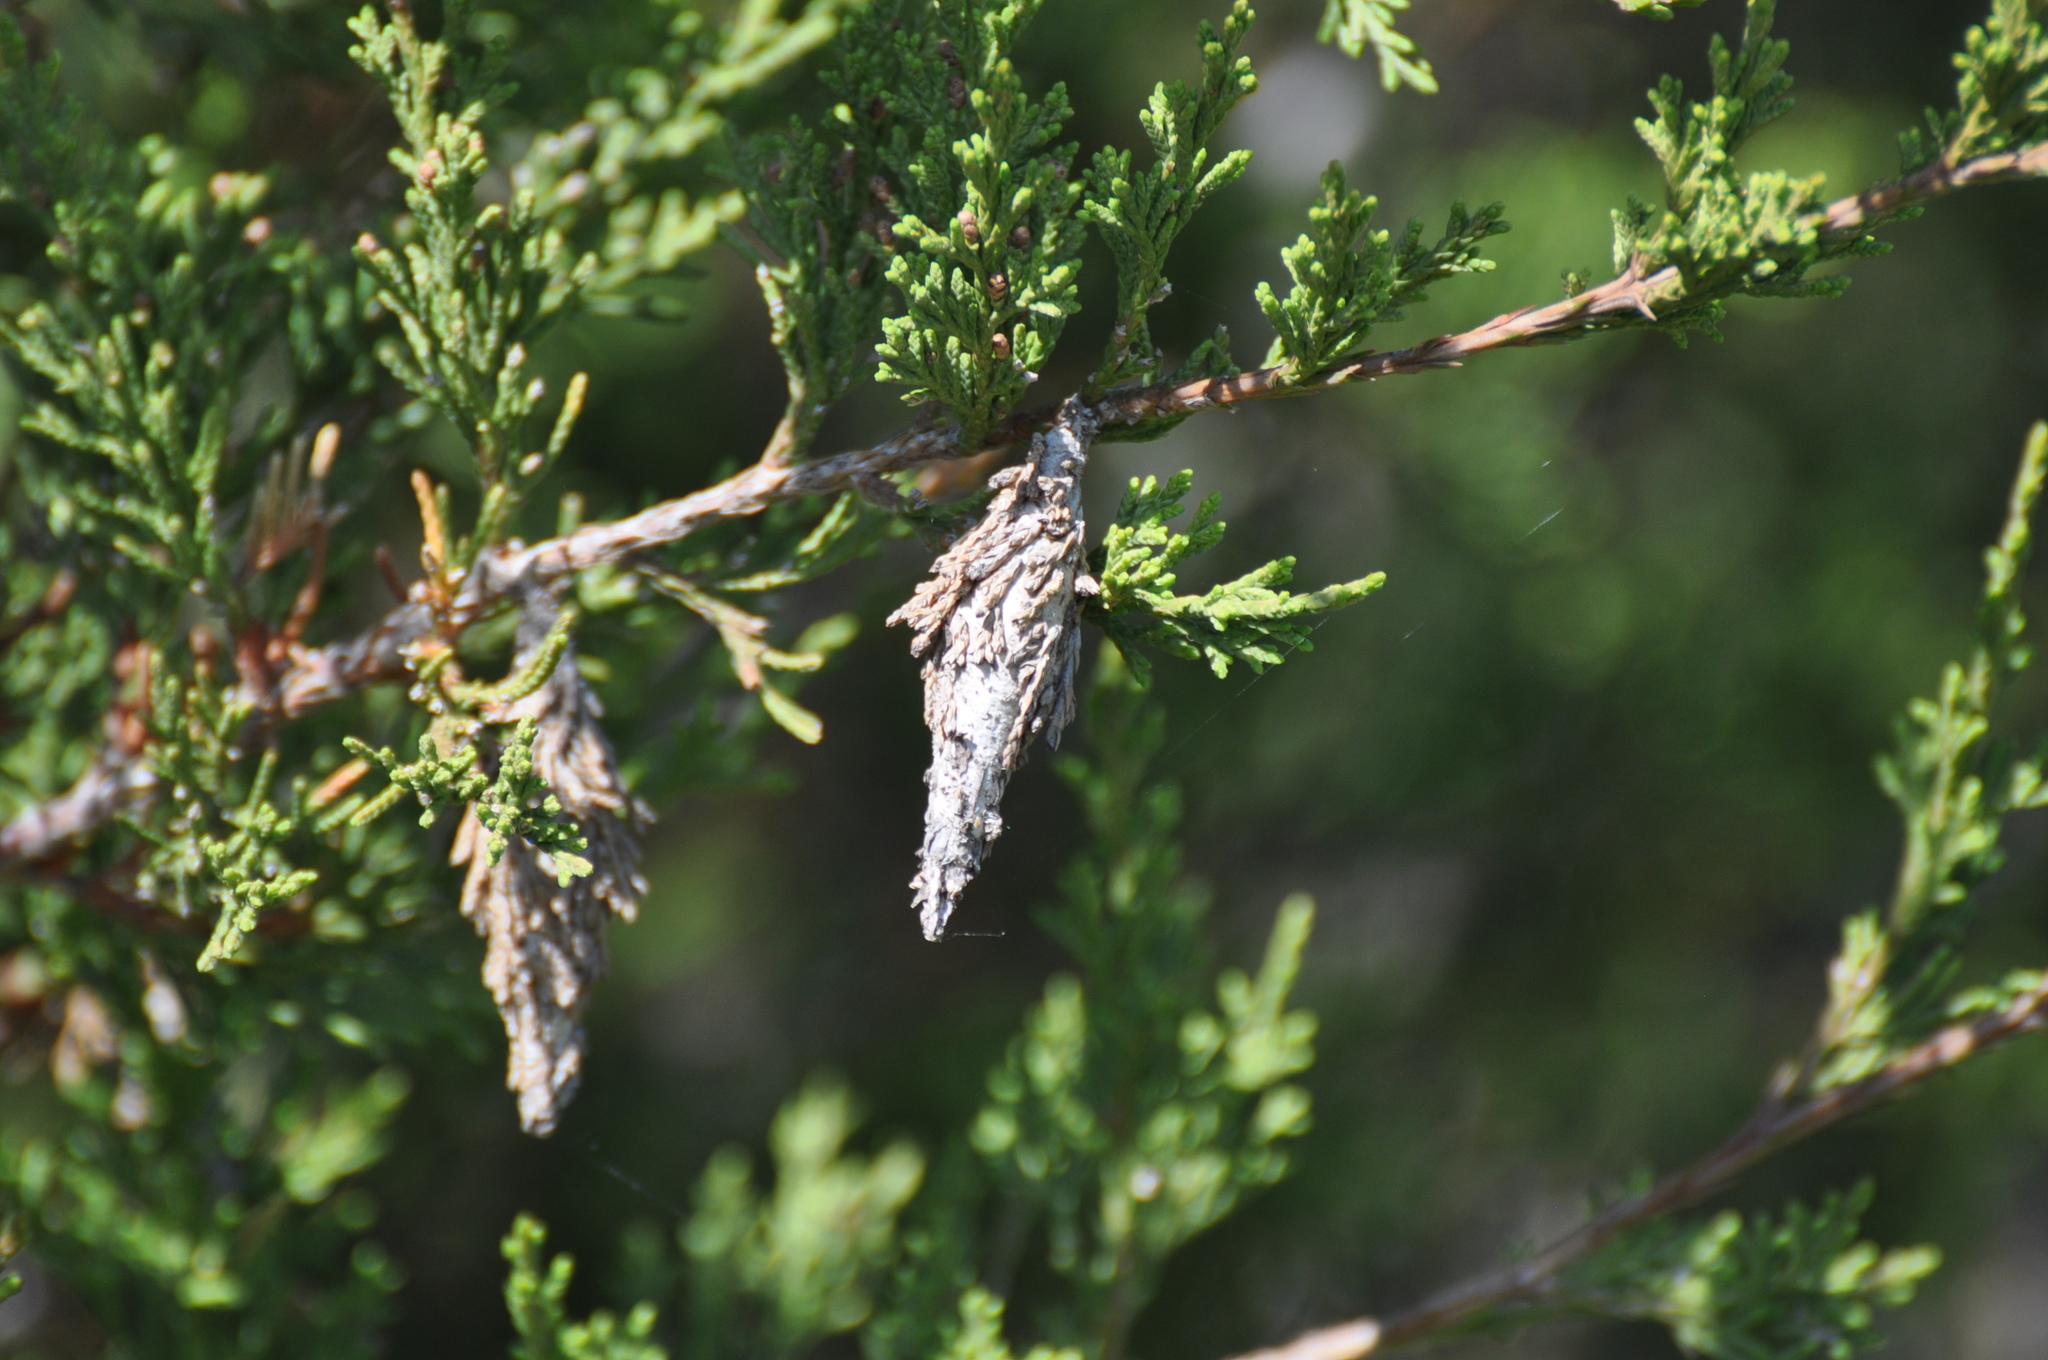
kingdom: Animalia
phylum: Arthropoda
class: Insecta
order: Lepidoptera
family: Psychidae
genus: Thyridopteryx
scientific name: Thyridopteryx ephemeraeformis
